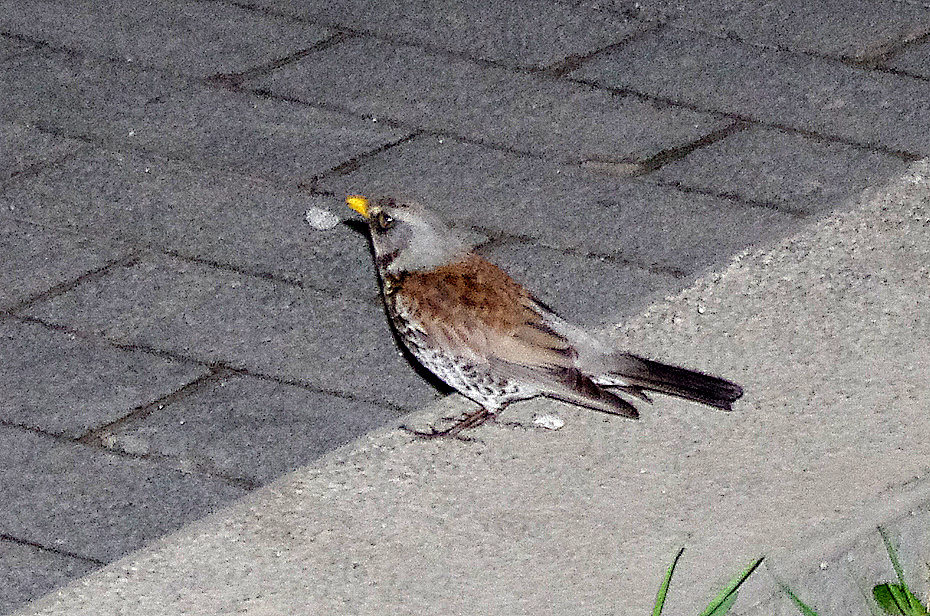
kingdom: Animalia
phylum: Chordata
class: Aves
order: Passeriformes
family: Turdidae
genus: Turdus
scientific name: Turdus pilaris
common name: Fieldfare
